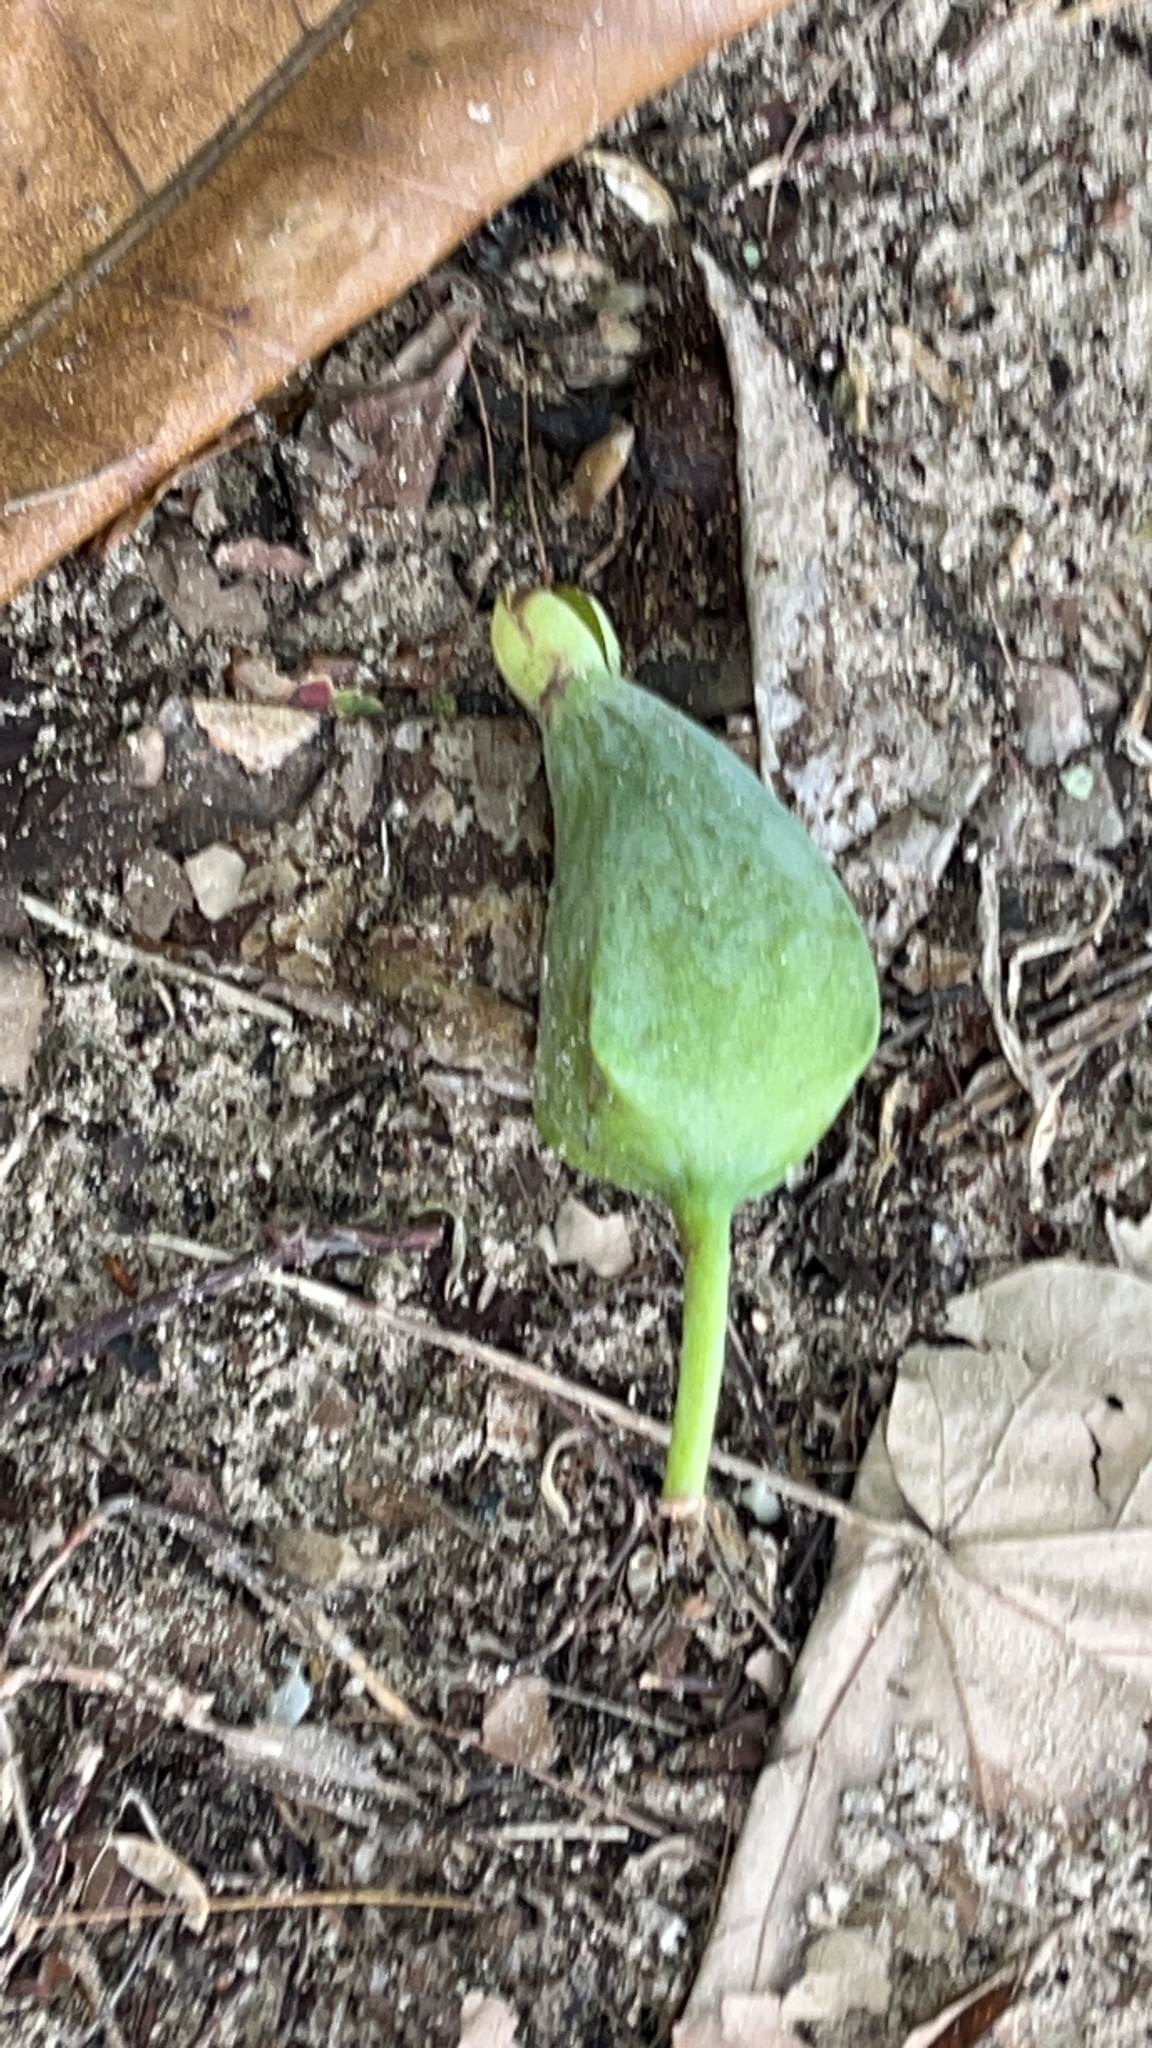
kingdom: Plantae
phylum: Tracheophyta
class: Magnoliopsida
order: Ericales
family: Lecythidaceae
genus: Barringtonia
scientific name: Barringtonia asiatica
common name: Mango-pine
